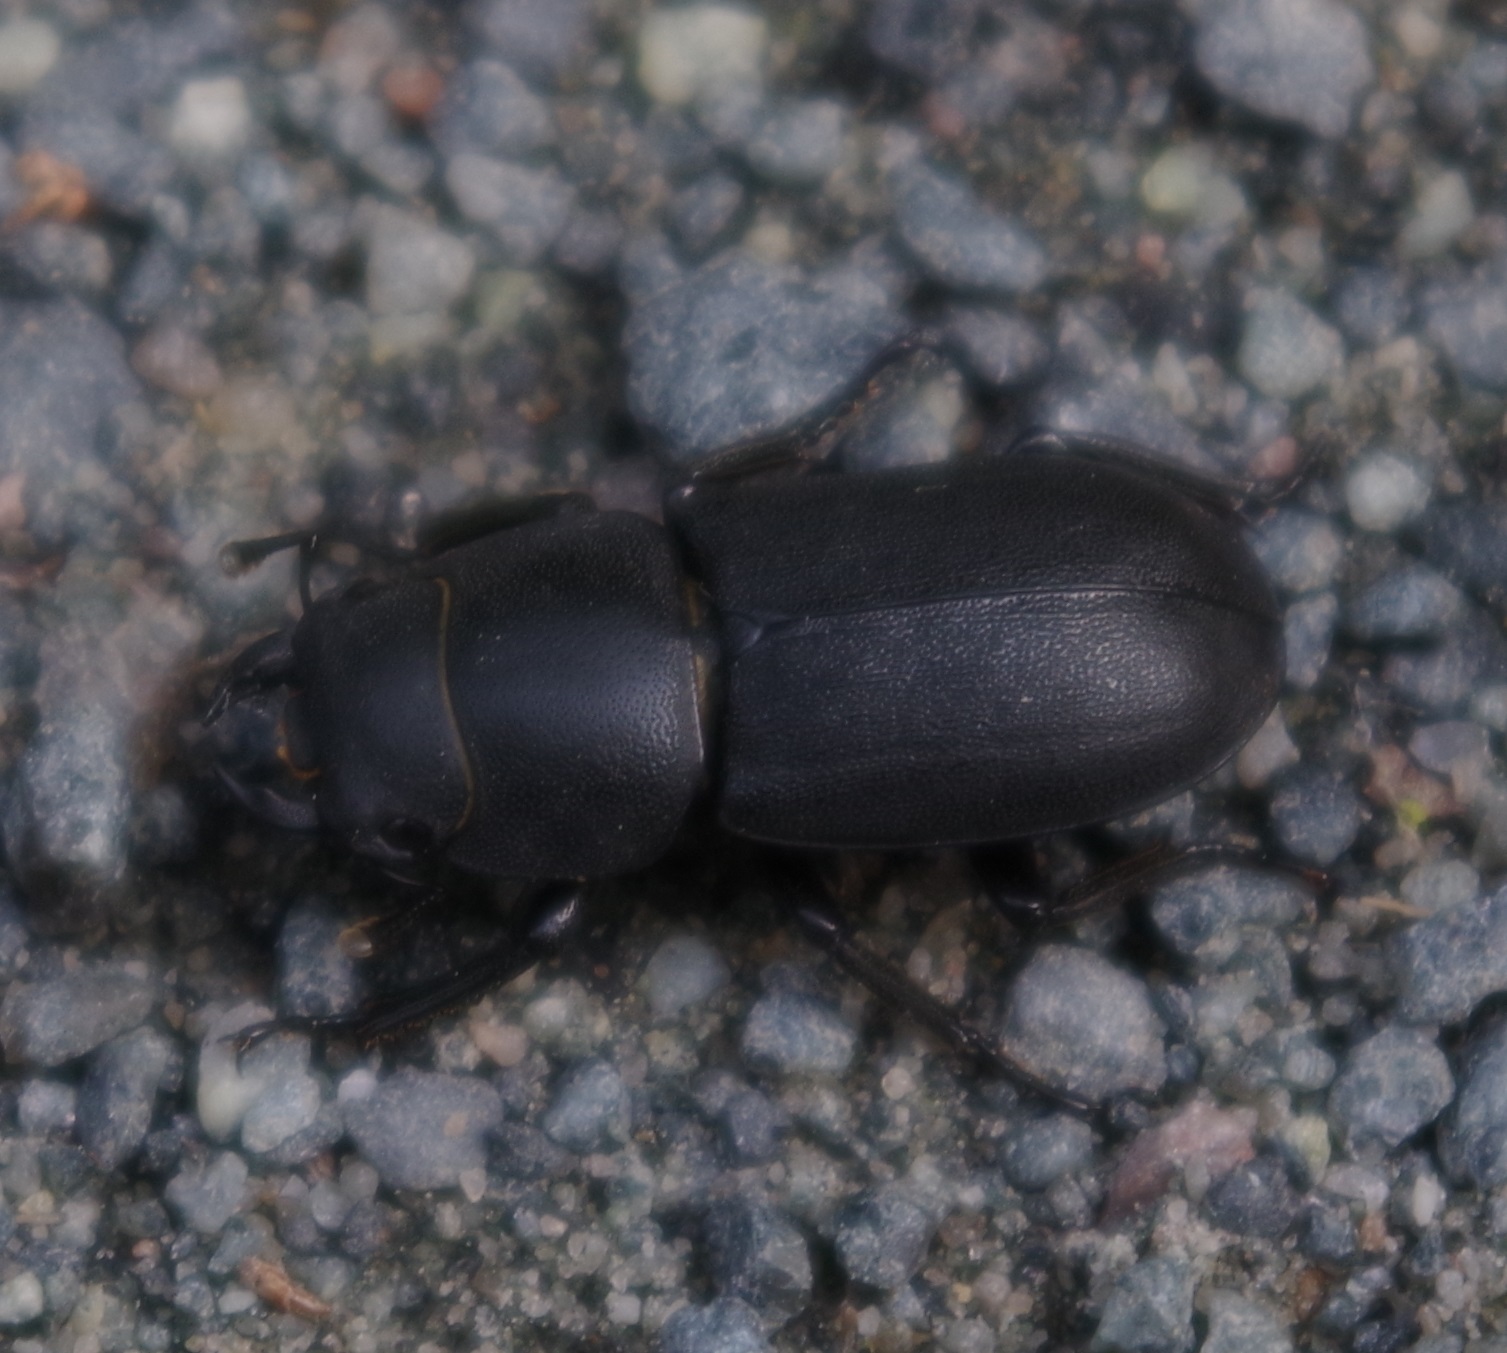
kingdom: Animalia
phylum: Arthropoda
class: Insecta
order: Coleoptera
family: Lucanidae
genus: Dorcus
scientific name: Dorcus parallelipipedus
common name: Lesser stag beetle
